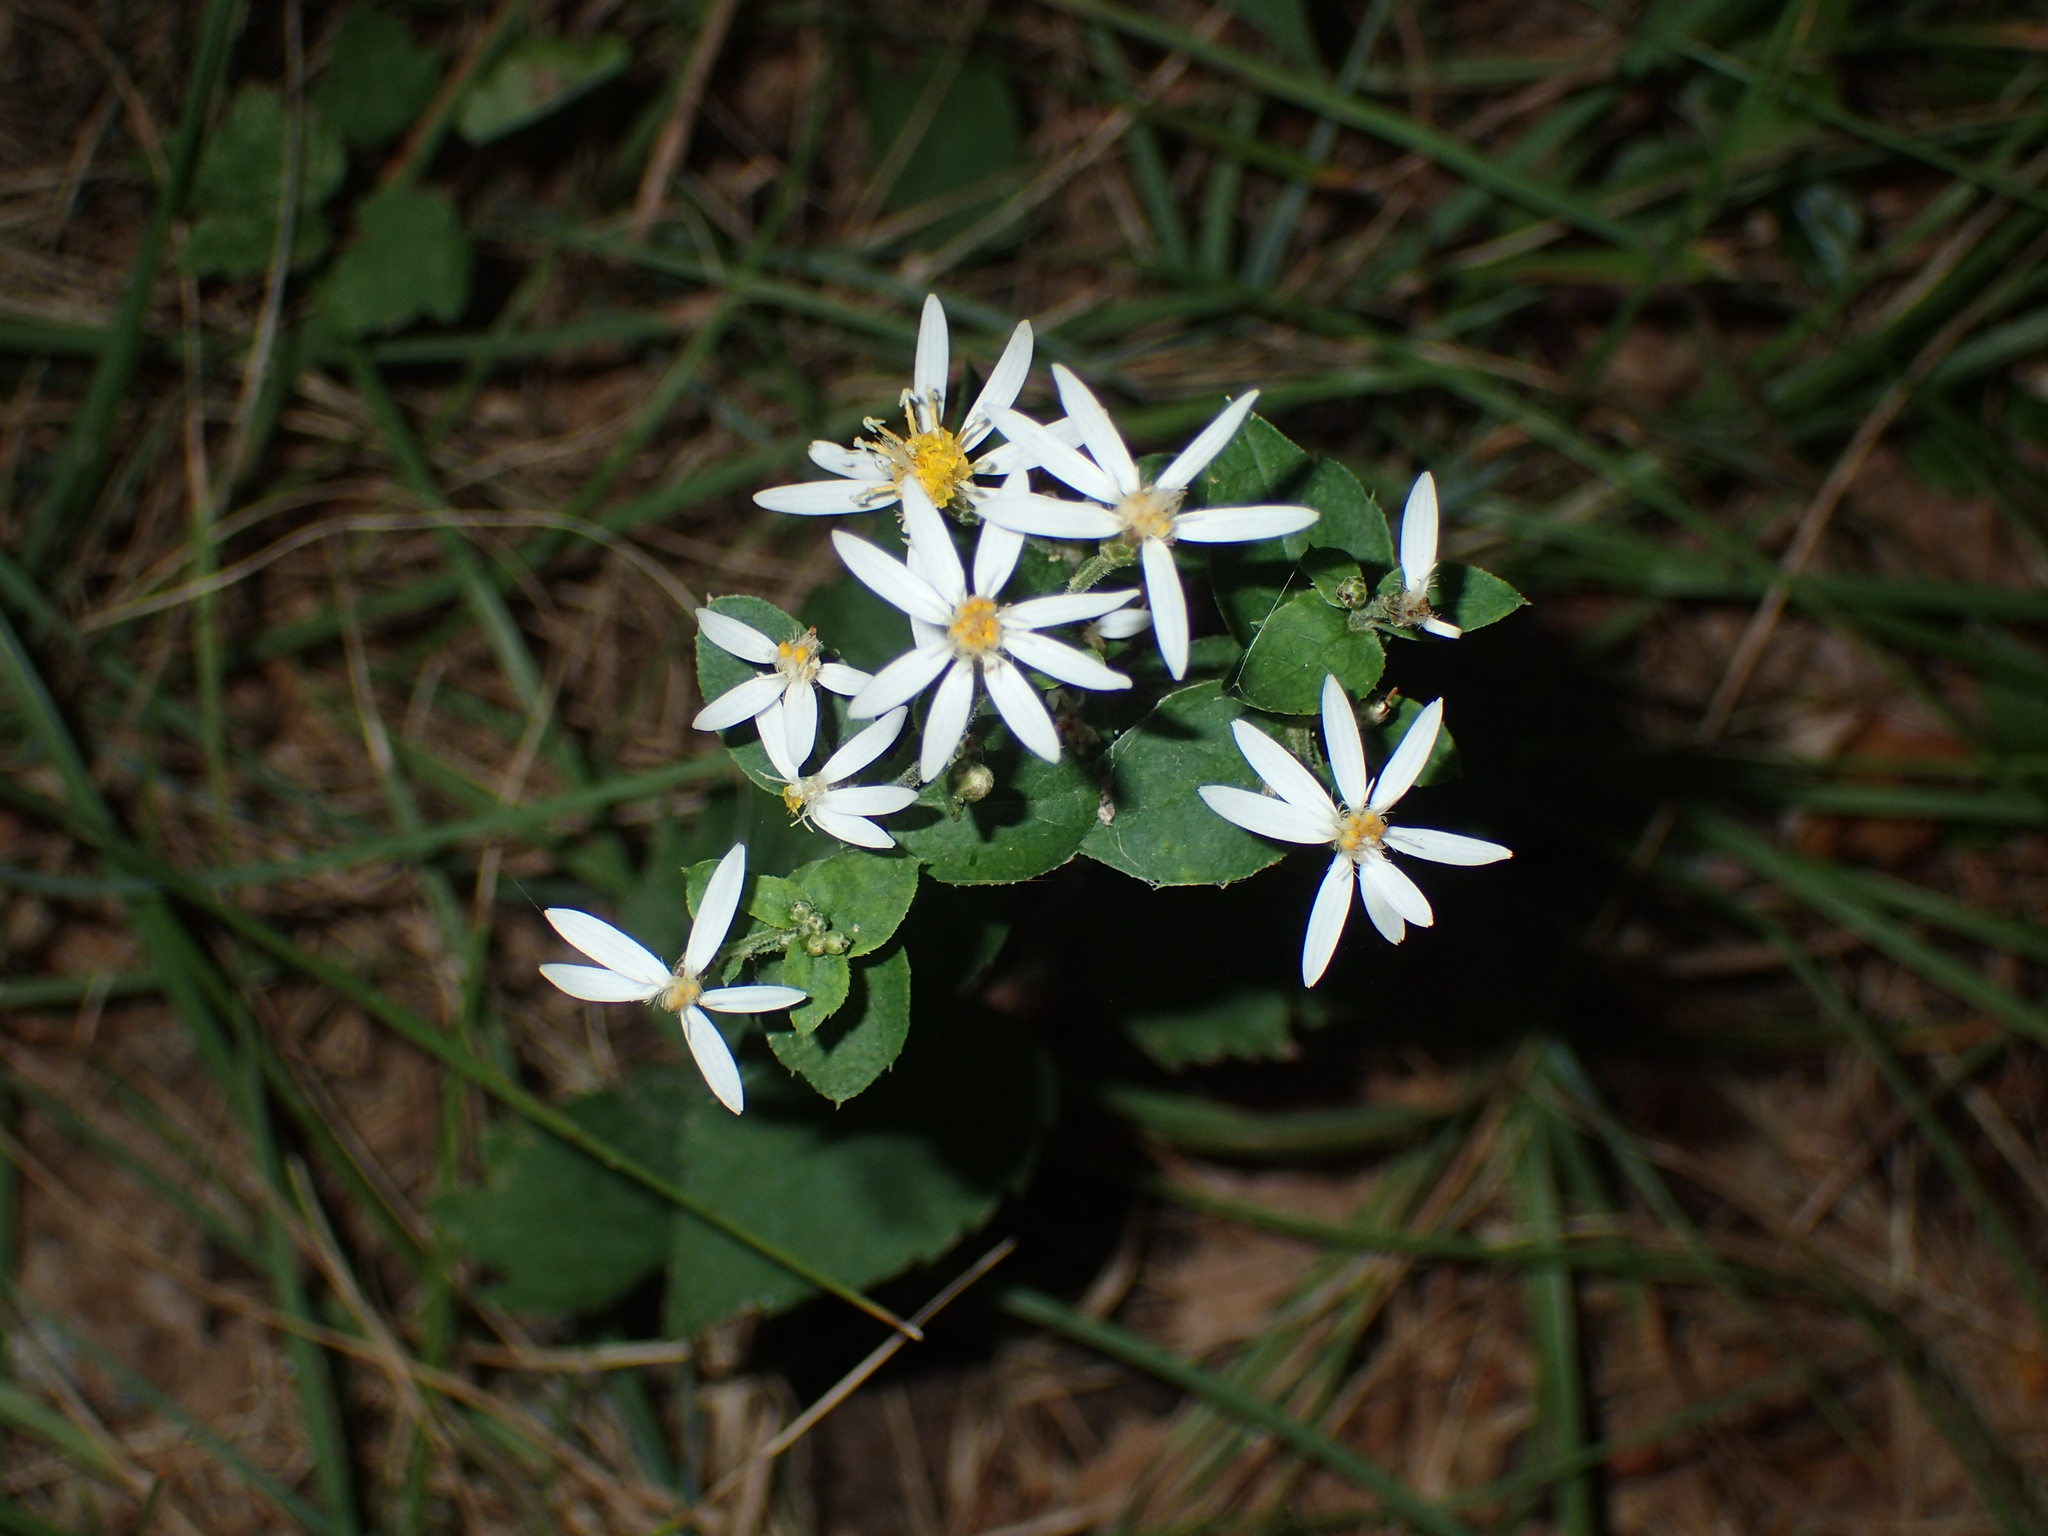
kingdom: Plantae
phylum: Tracheophyta
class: Magnoliopsida
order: Asterales
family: Asteraceae
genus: Eurybia
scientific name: Eurybia divaricata
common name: White wood aster
